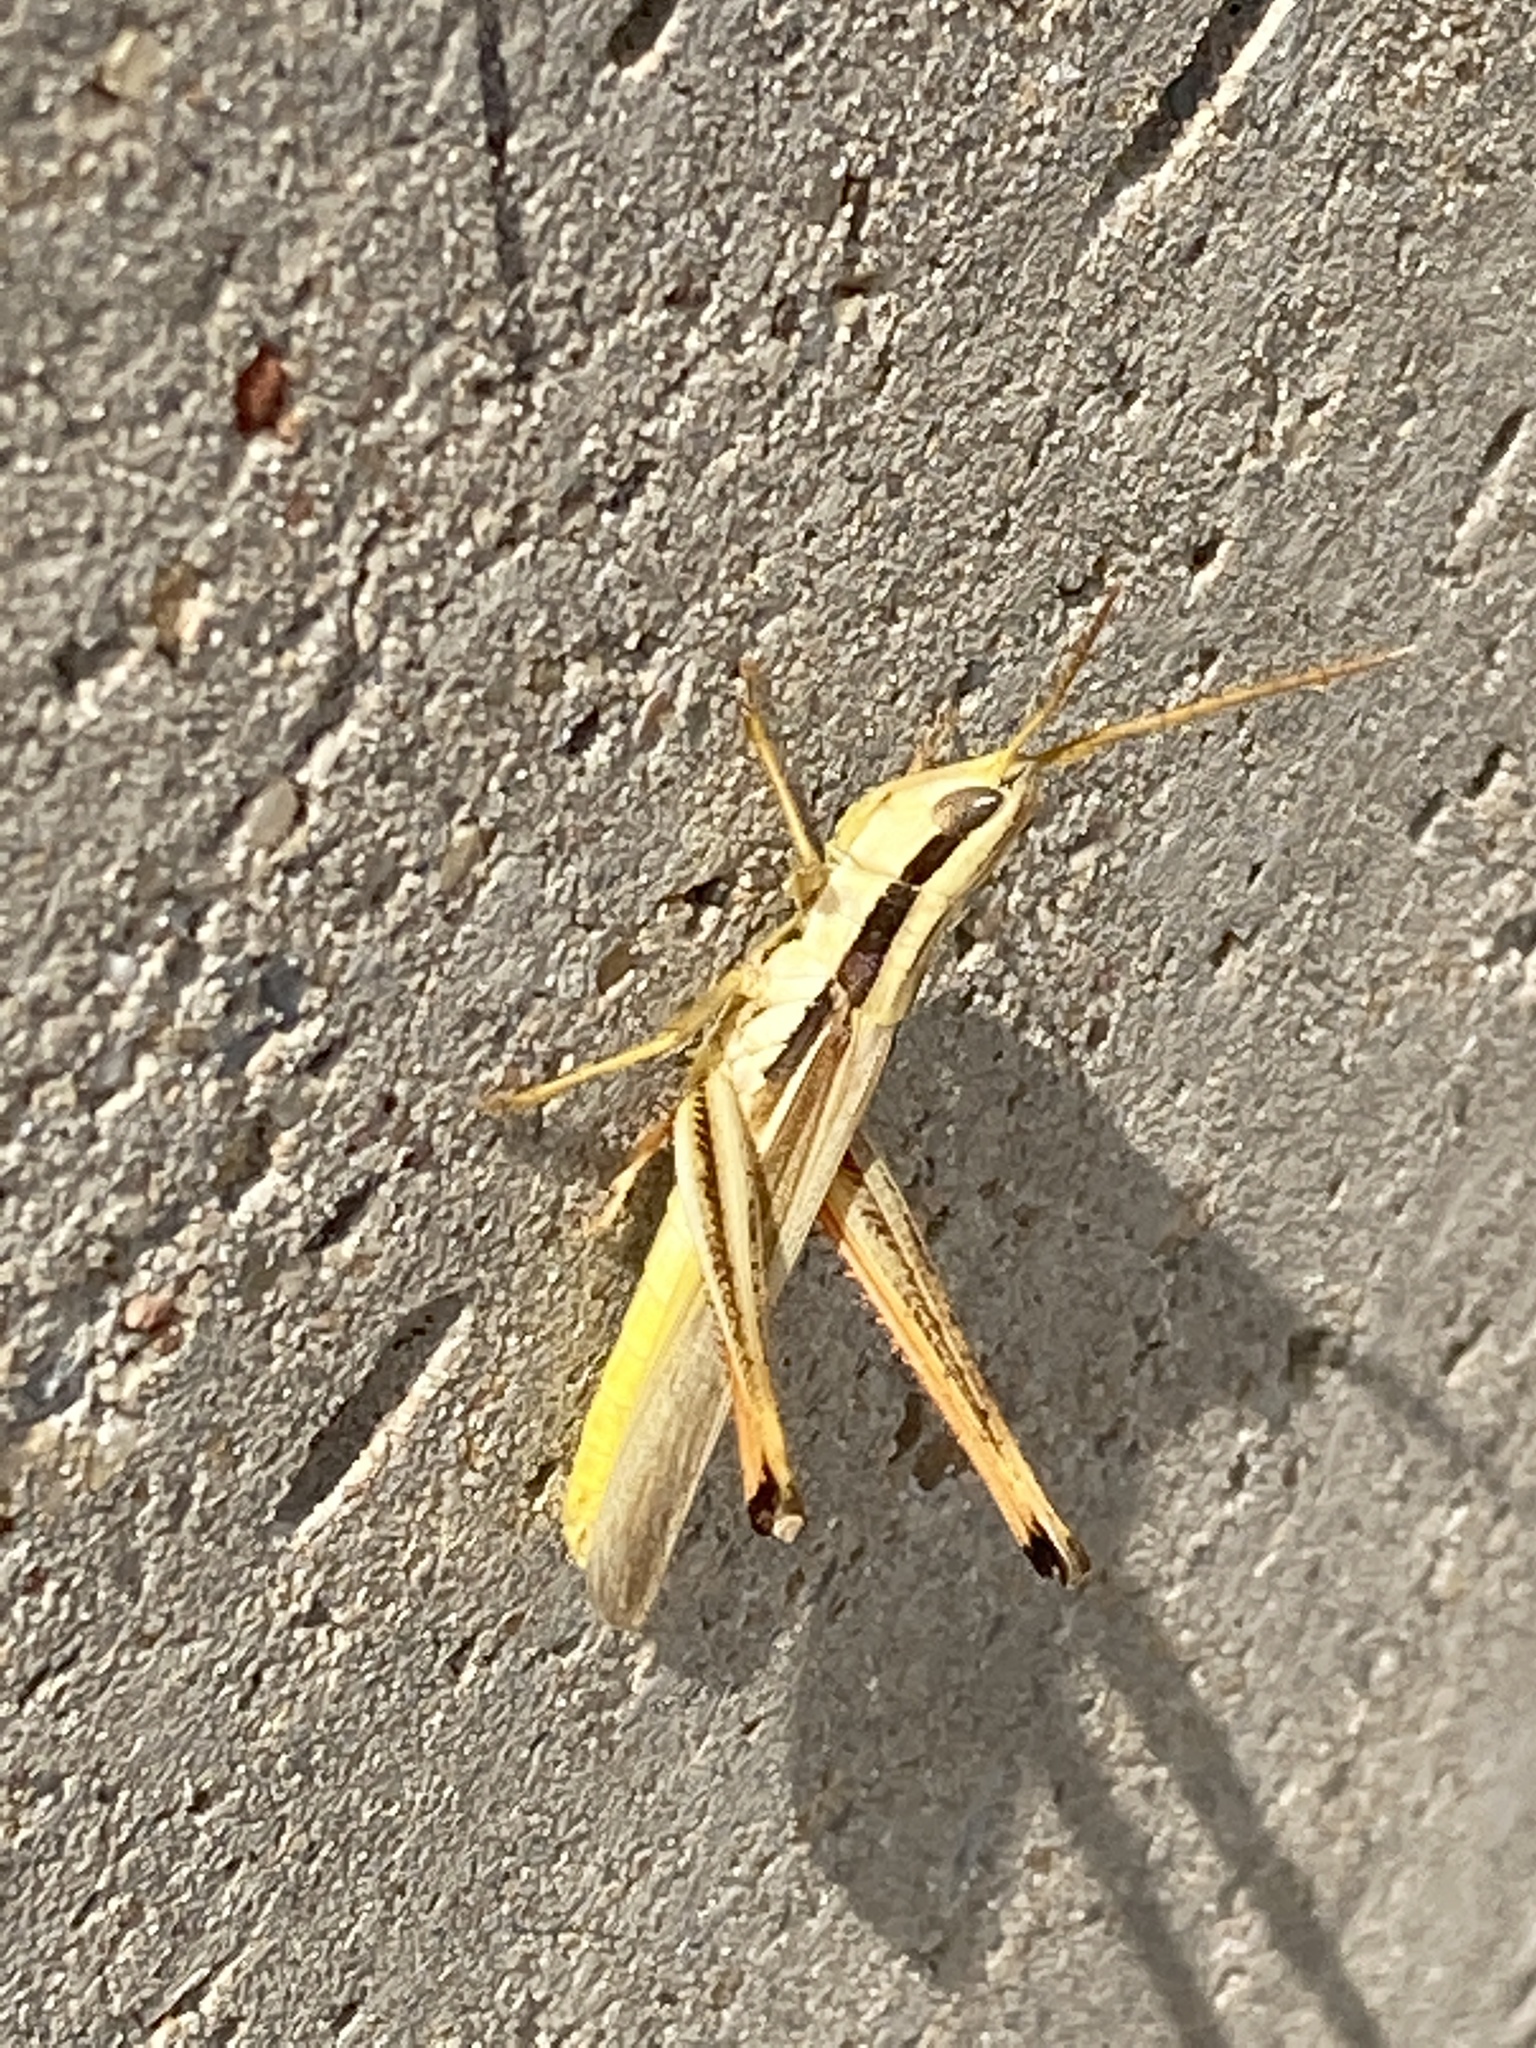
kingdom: Animalia
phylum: Arthropoda
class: Insecta
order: Orthoptera
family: Acrididae
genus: Mermiria
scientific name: Mermiria bivittata
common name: Two-striped mermiria grasshopper
